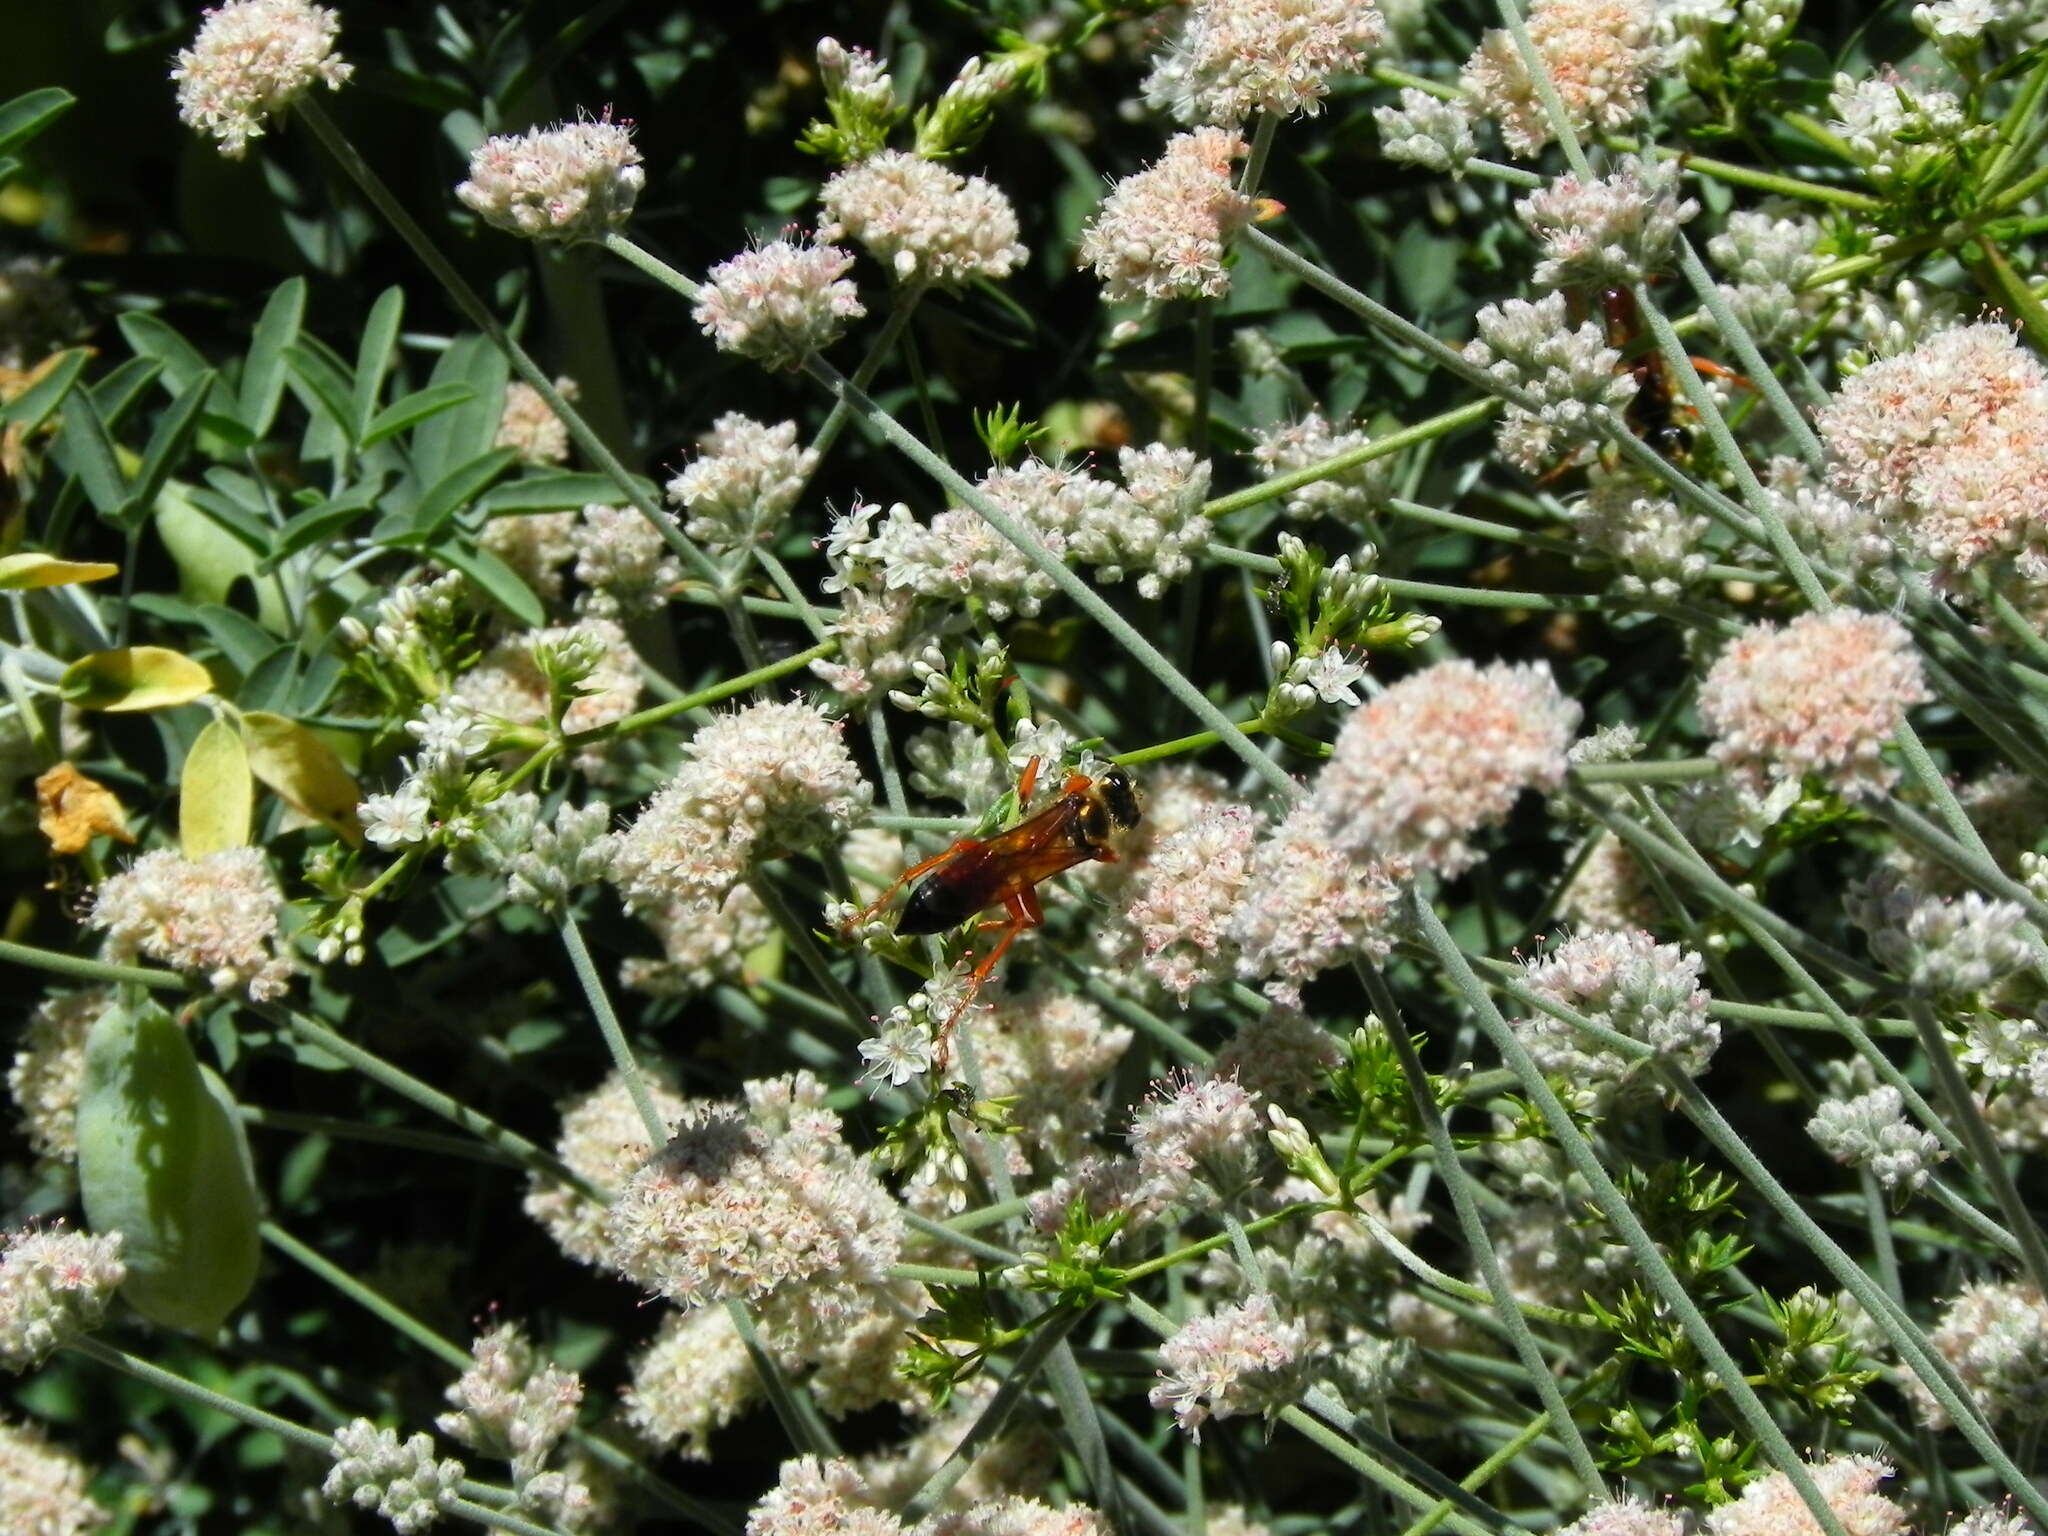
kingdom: Animalia
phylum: Arthropoda
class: Insecta
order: Hymenoptera
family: Sphecidae
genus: Sphex
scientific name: Sphex ichneumoneus
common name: Great golden digger wasp
